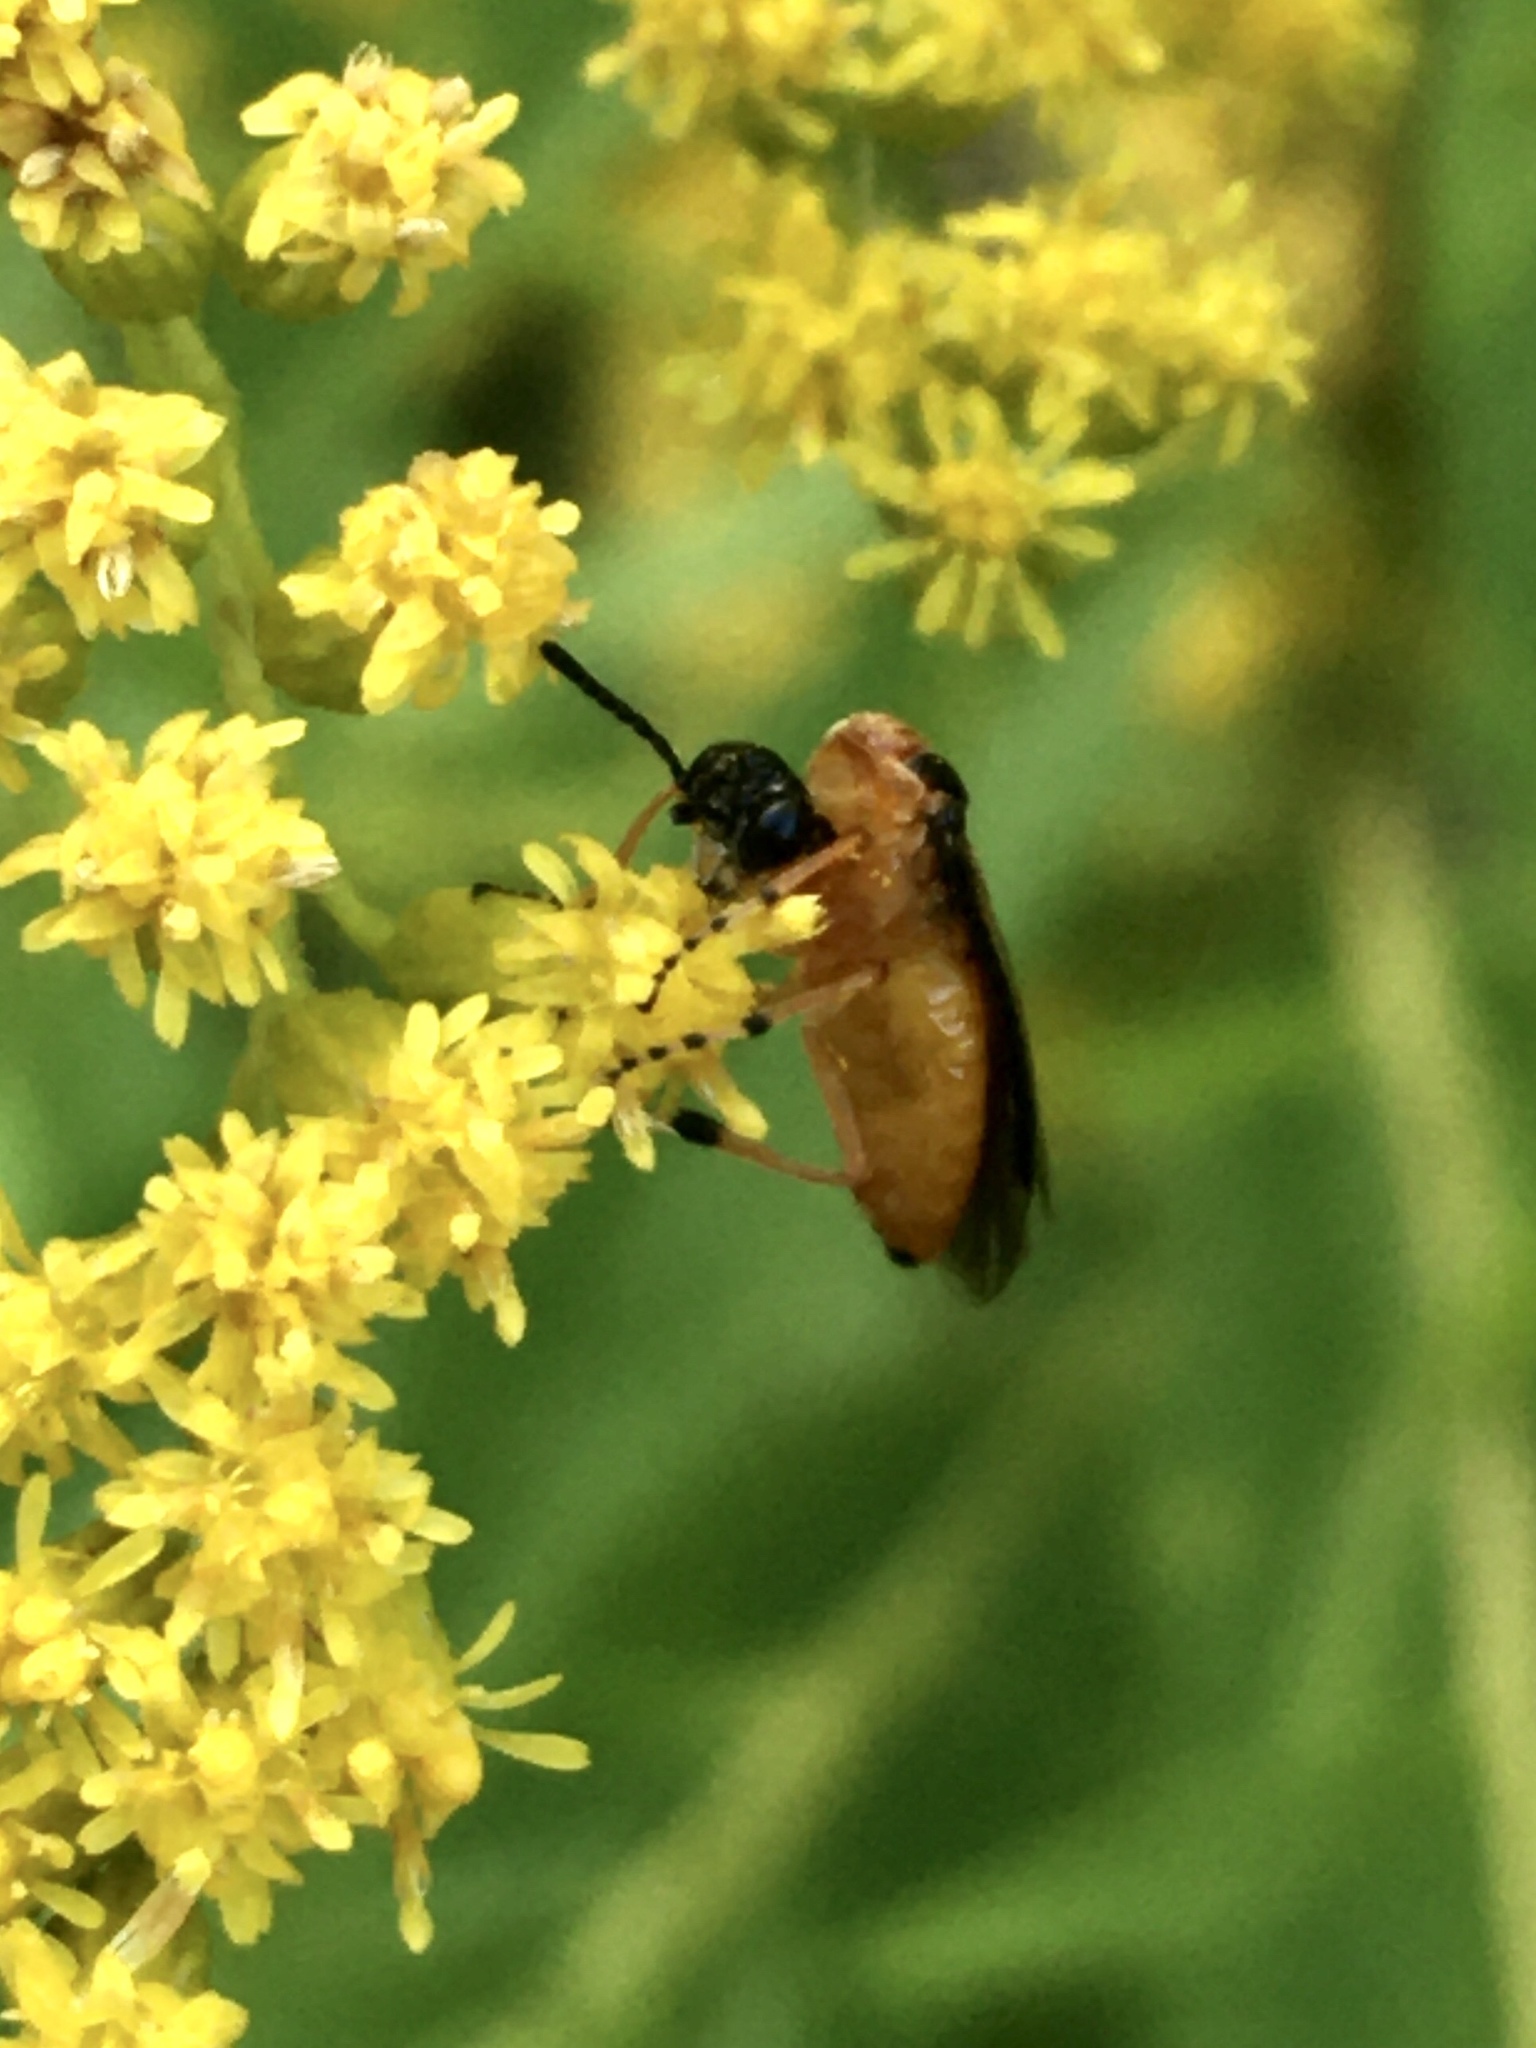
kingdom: Animalia
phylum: Arthropoda
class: Insecta
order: Hymenoptera
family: Tenthredinidae
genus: Athalia
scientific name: Athalia rosae
